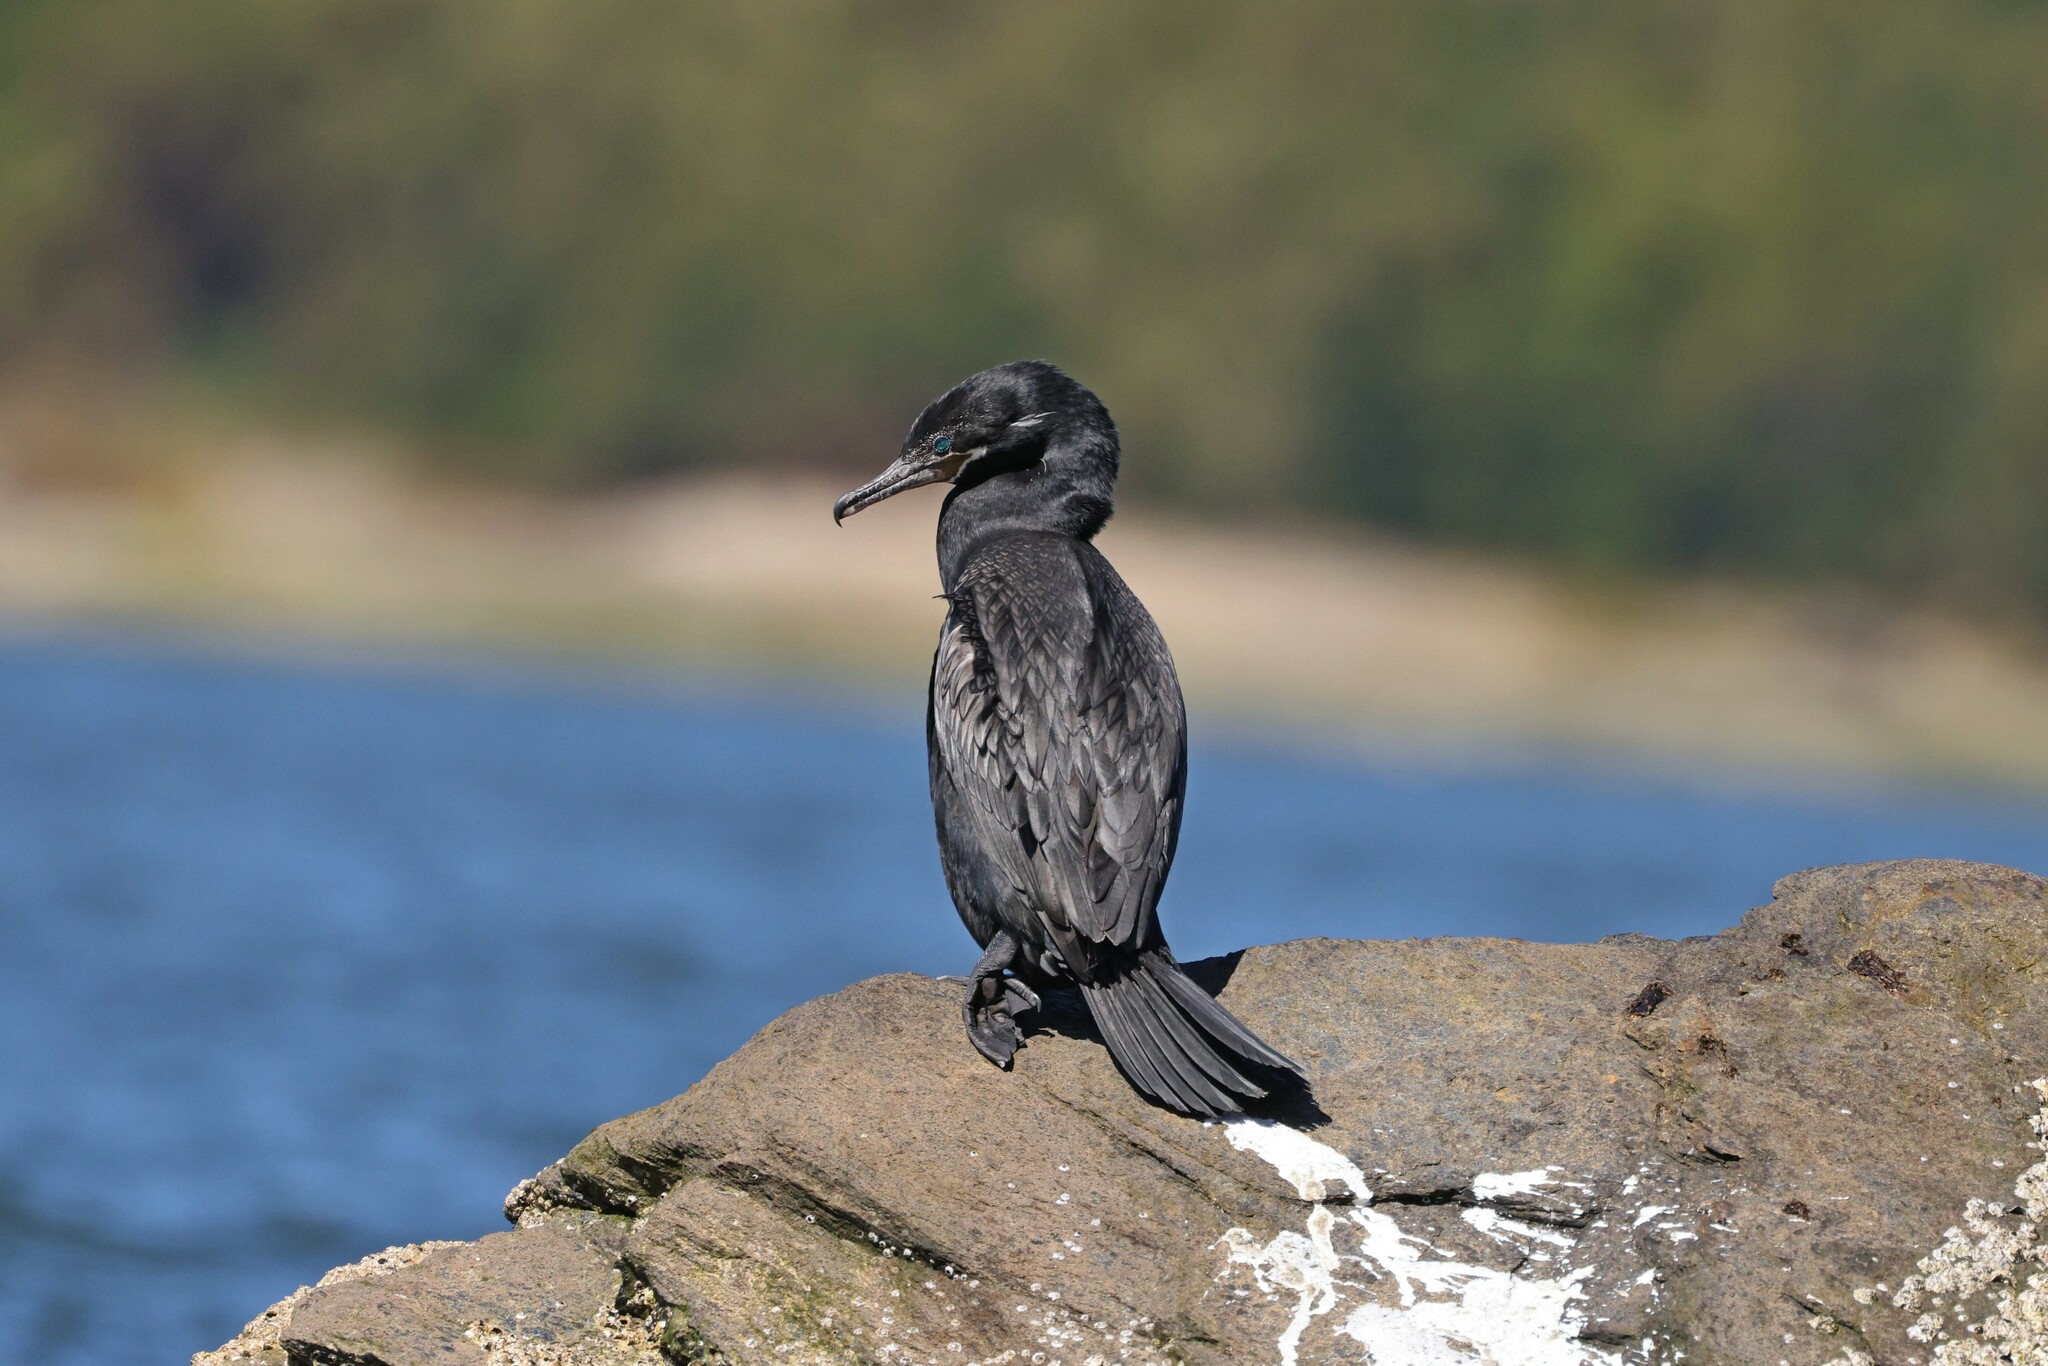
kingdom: Animalia
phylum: Chordata
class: Aves
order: Suliformes
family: Phalacrocoracidae
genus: Phalacrocorax
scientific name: Phalacrocorax brasilianus
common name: Neotropic cormorant
